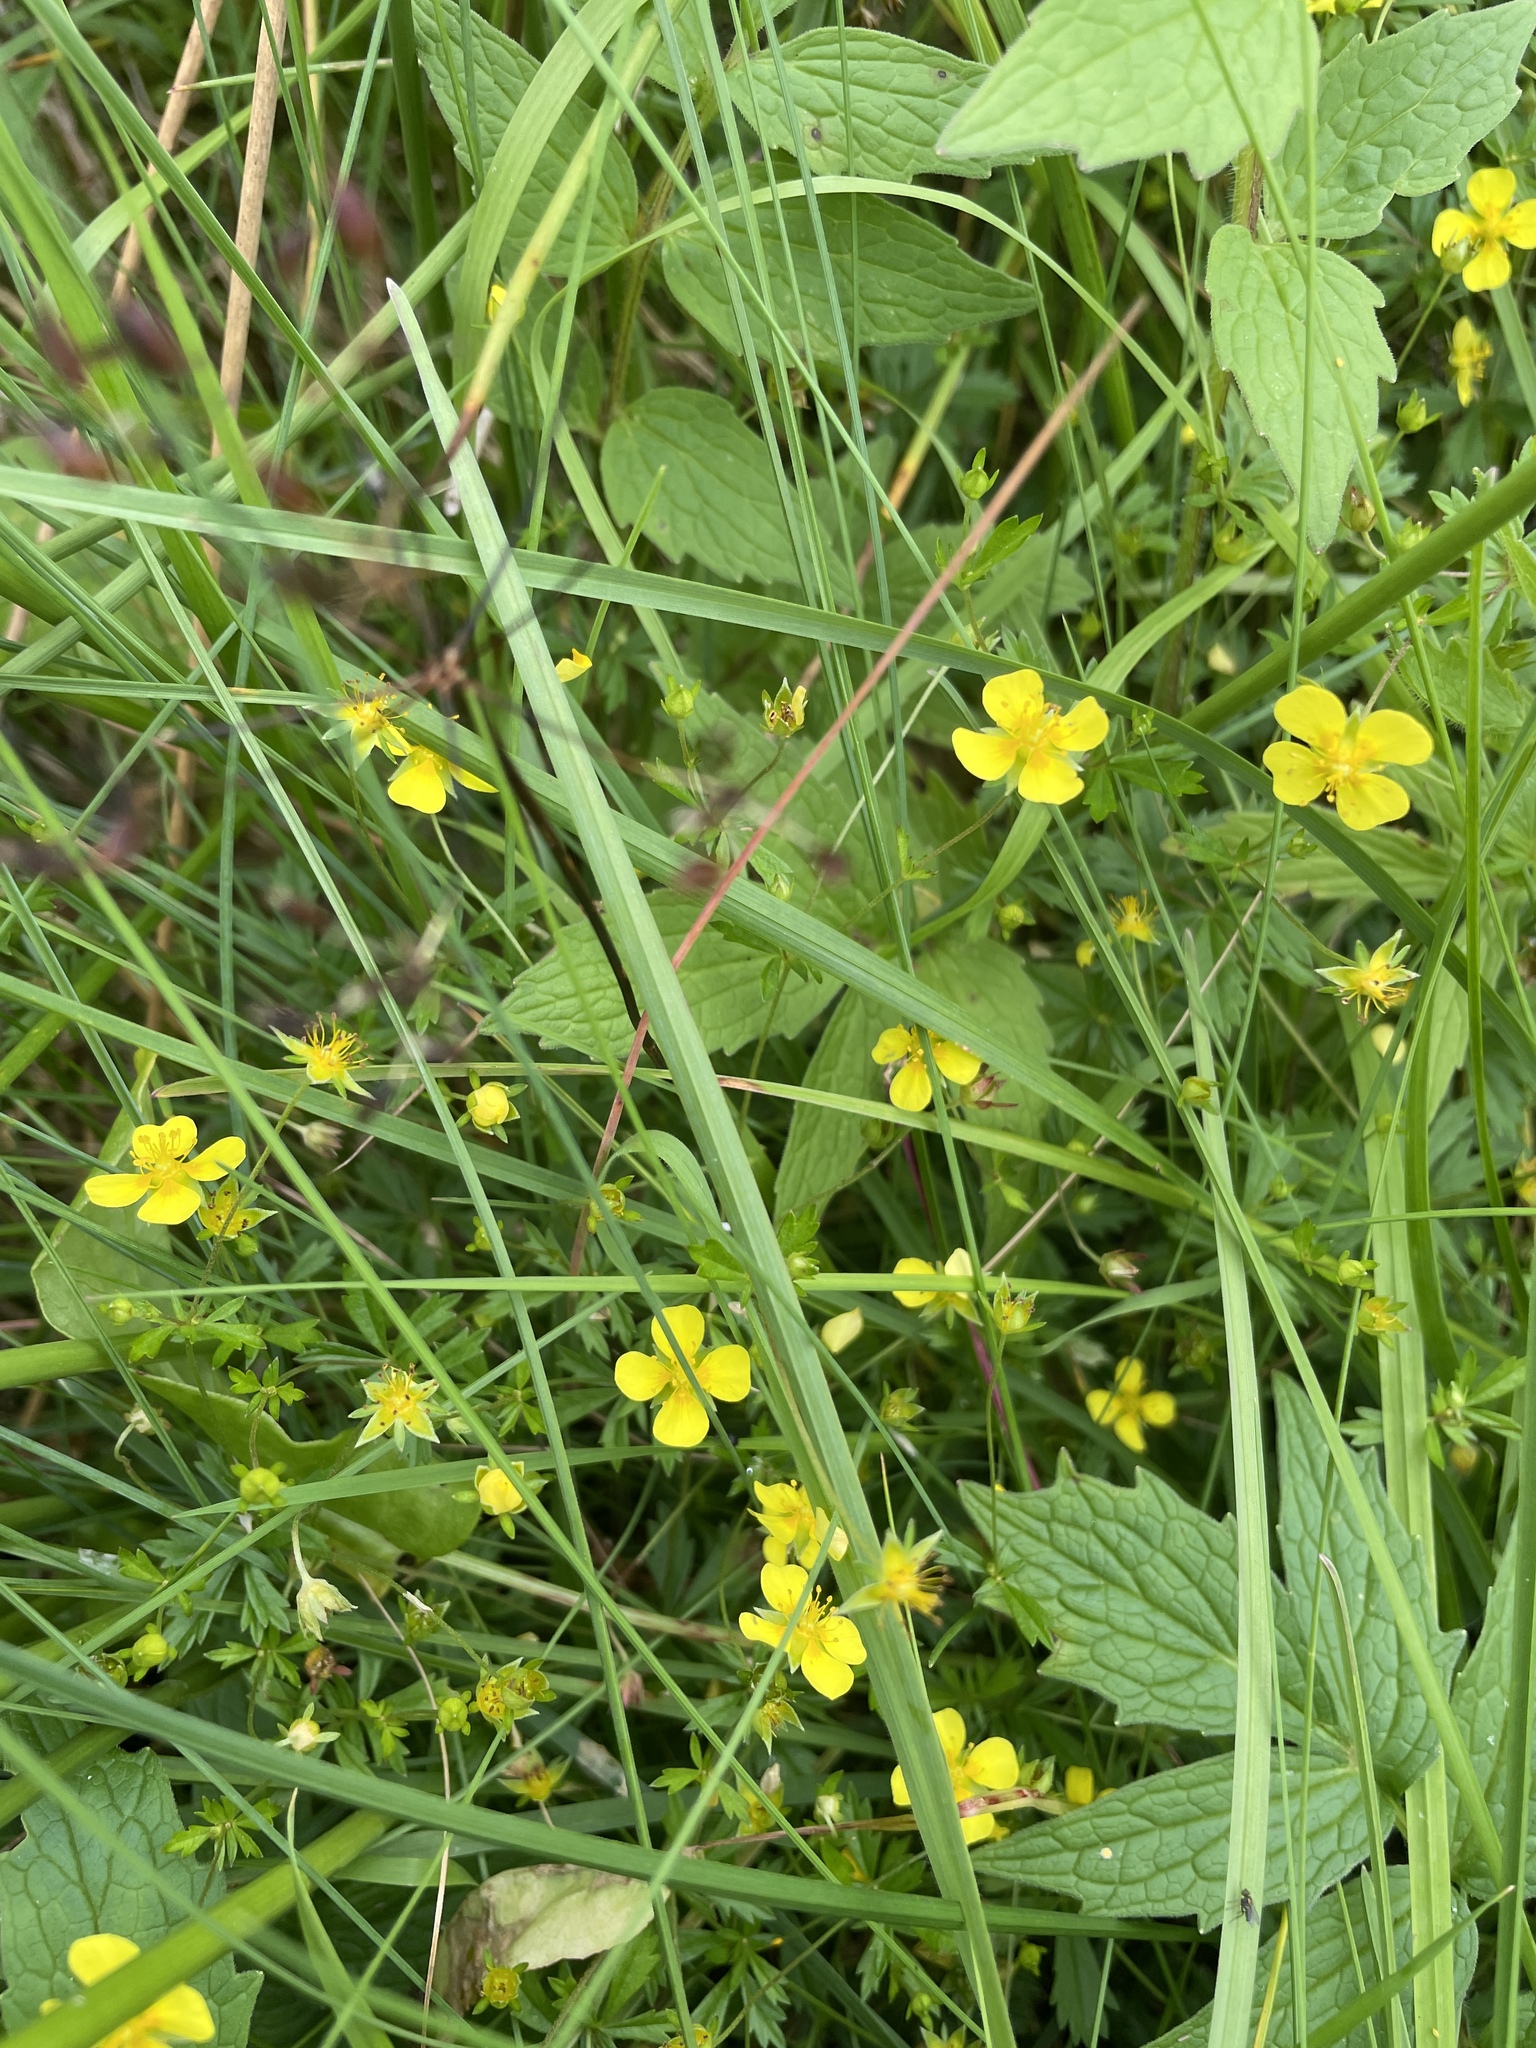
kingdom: Plantae
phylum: Tracheophyta
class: Magnoliopsida
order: Rosales
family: Rosaceae
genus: Potentilla
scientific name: Potentilla erecta
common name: Tormentil
